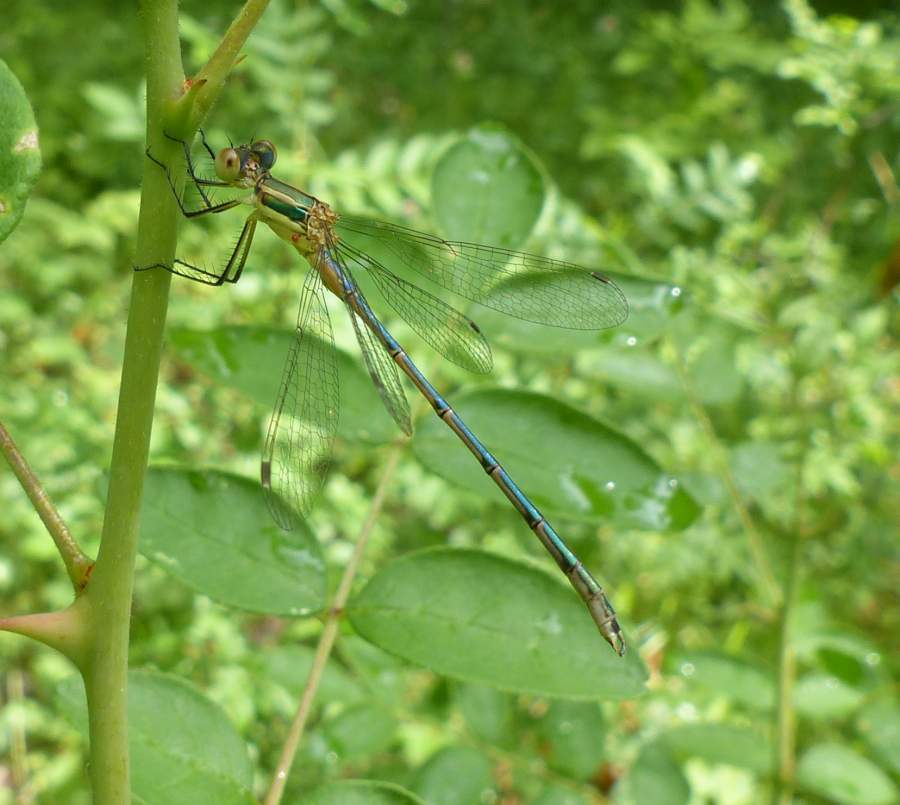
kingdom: Animalia
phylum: Arthropoda
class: Insecta
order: Odonata
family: Lestidae
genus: Lestes
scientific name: Lestes unguiculatus
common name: Lyre-tipped spreadwing
